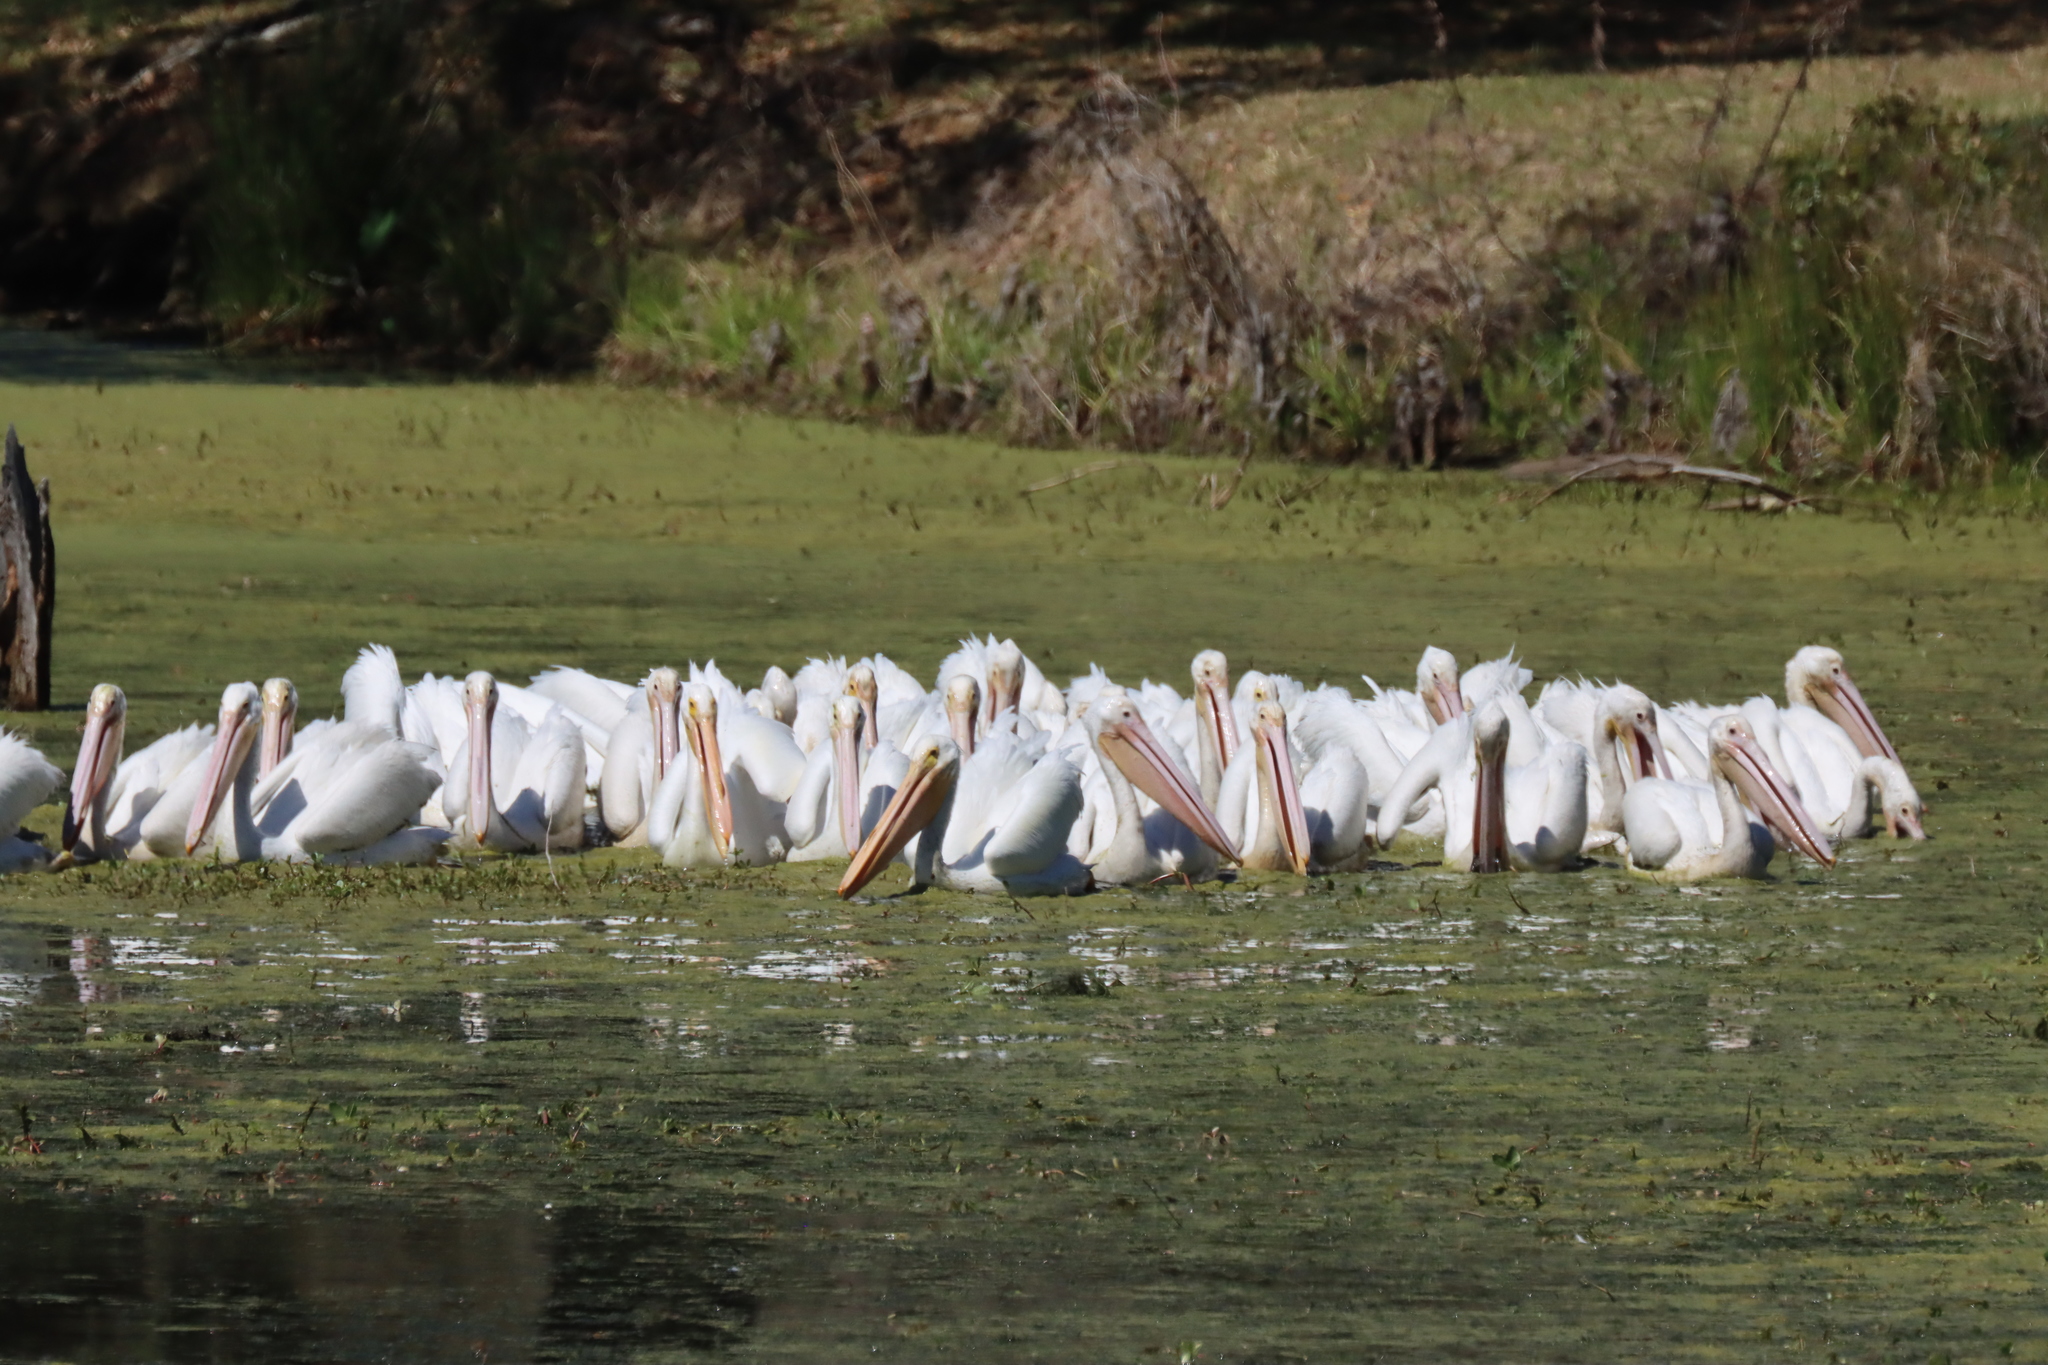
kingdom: Animalia
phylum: Chordata
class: Aves
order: Pelecaniformes
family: Pelecanidae
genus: Pelecanus
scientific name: Pelecanus erythrorhynchos
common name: American white pelican
